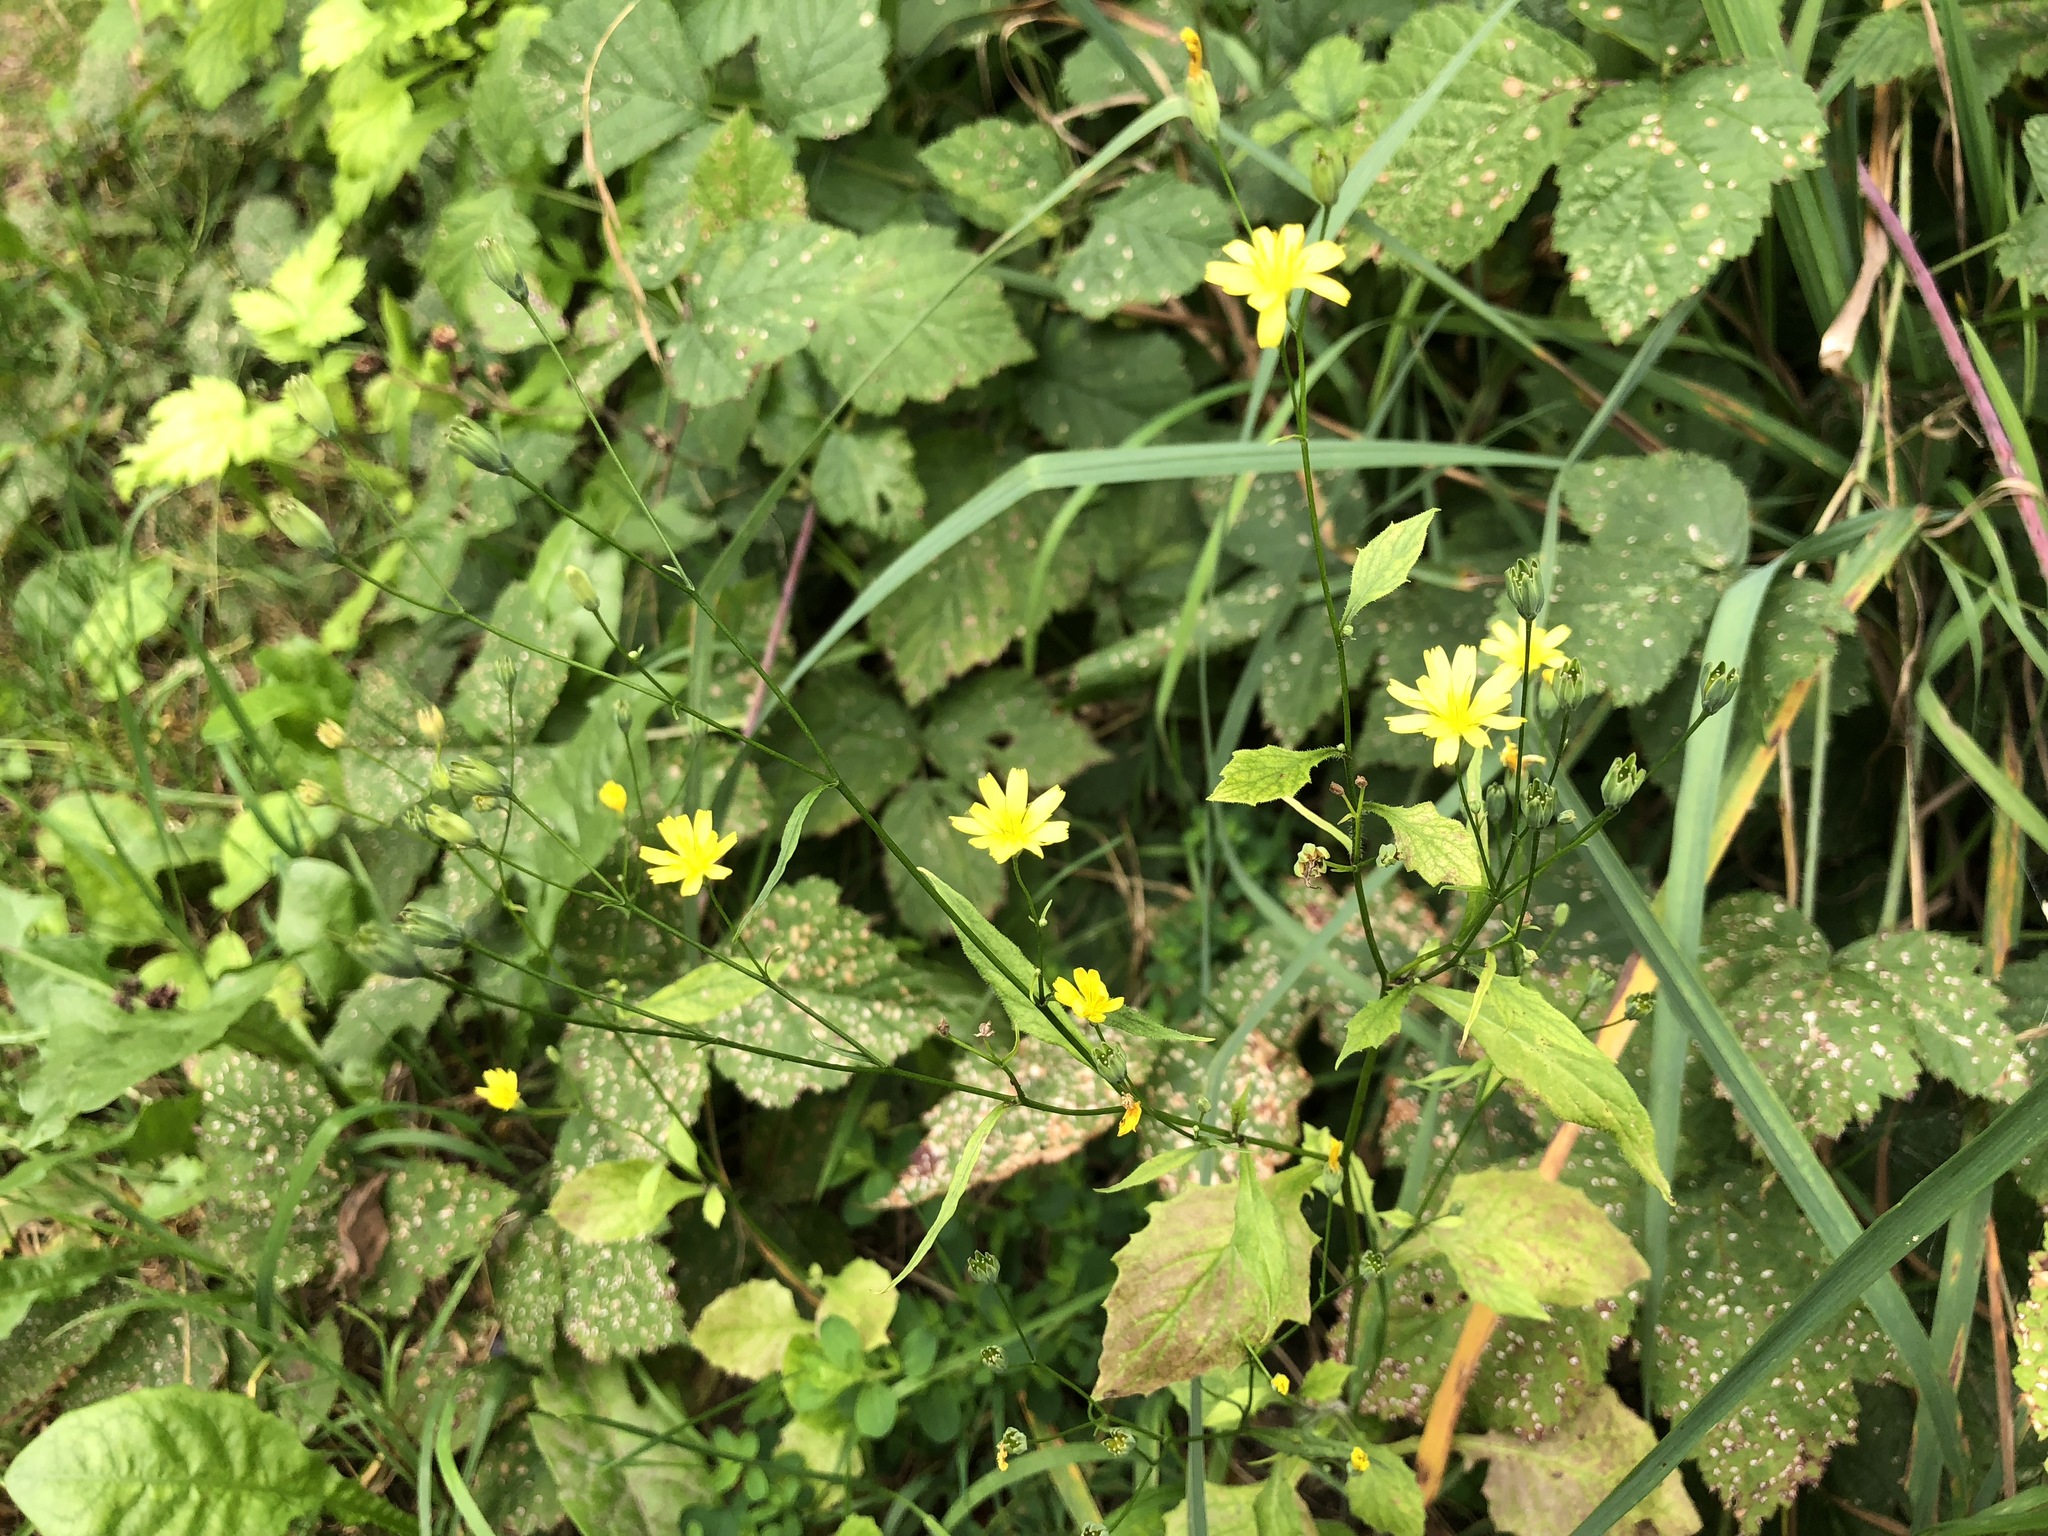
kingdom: Plantae
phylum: Tracheophyta
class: Magnoliopsida
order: Asterales
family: Asteraceae
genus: Lapsana
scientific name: Lapsana communis
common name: Nipplewort
